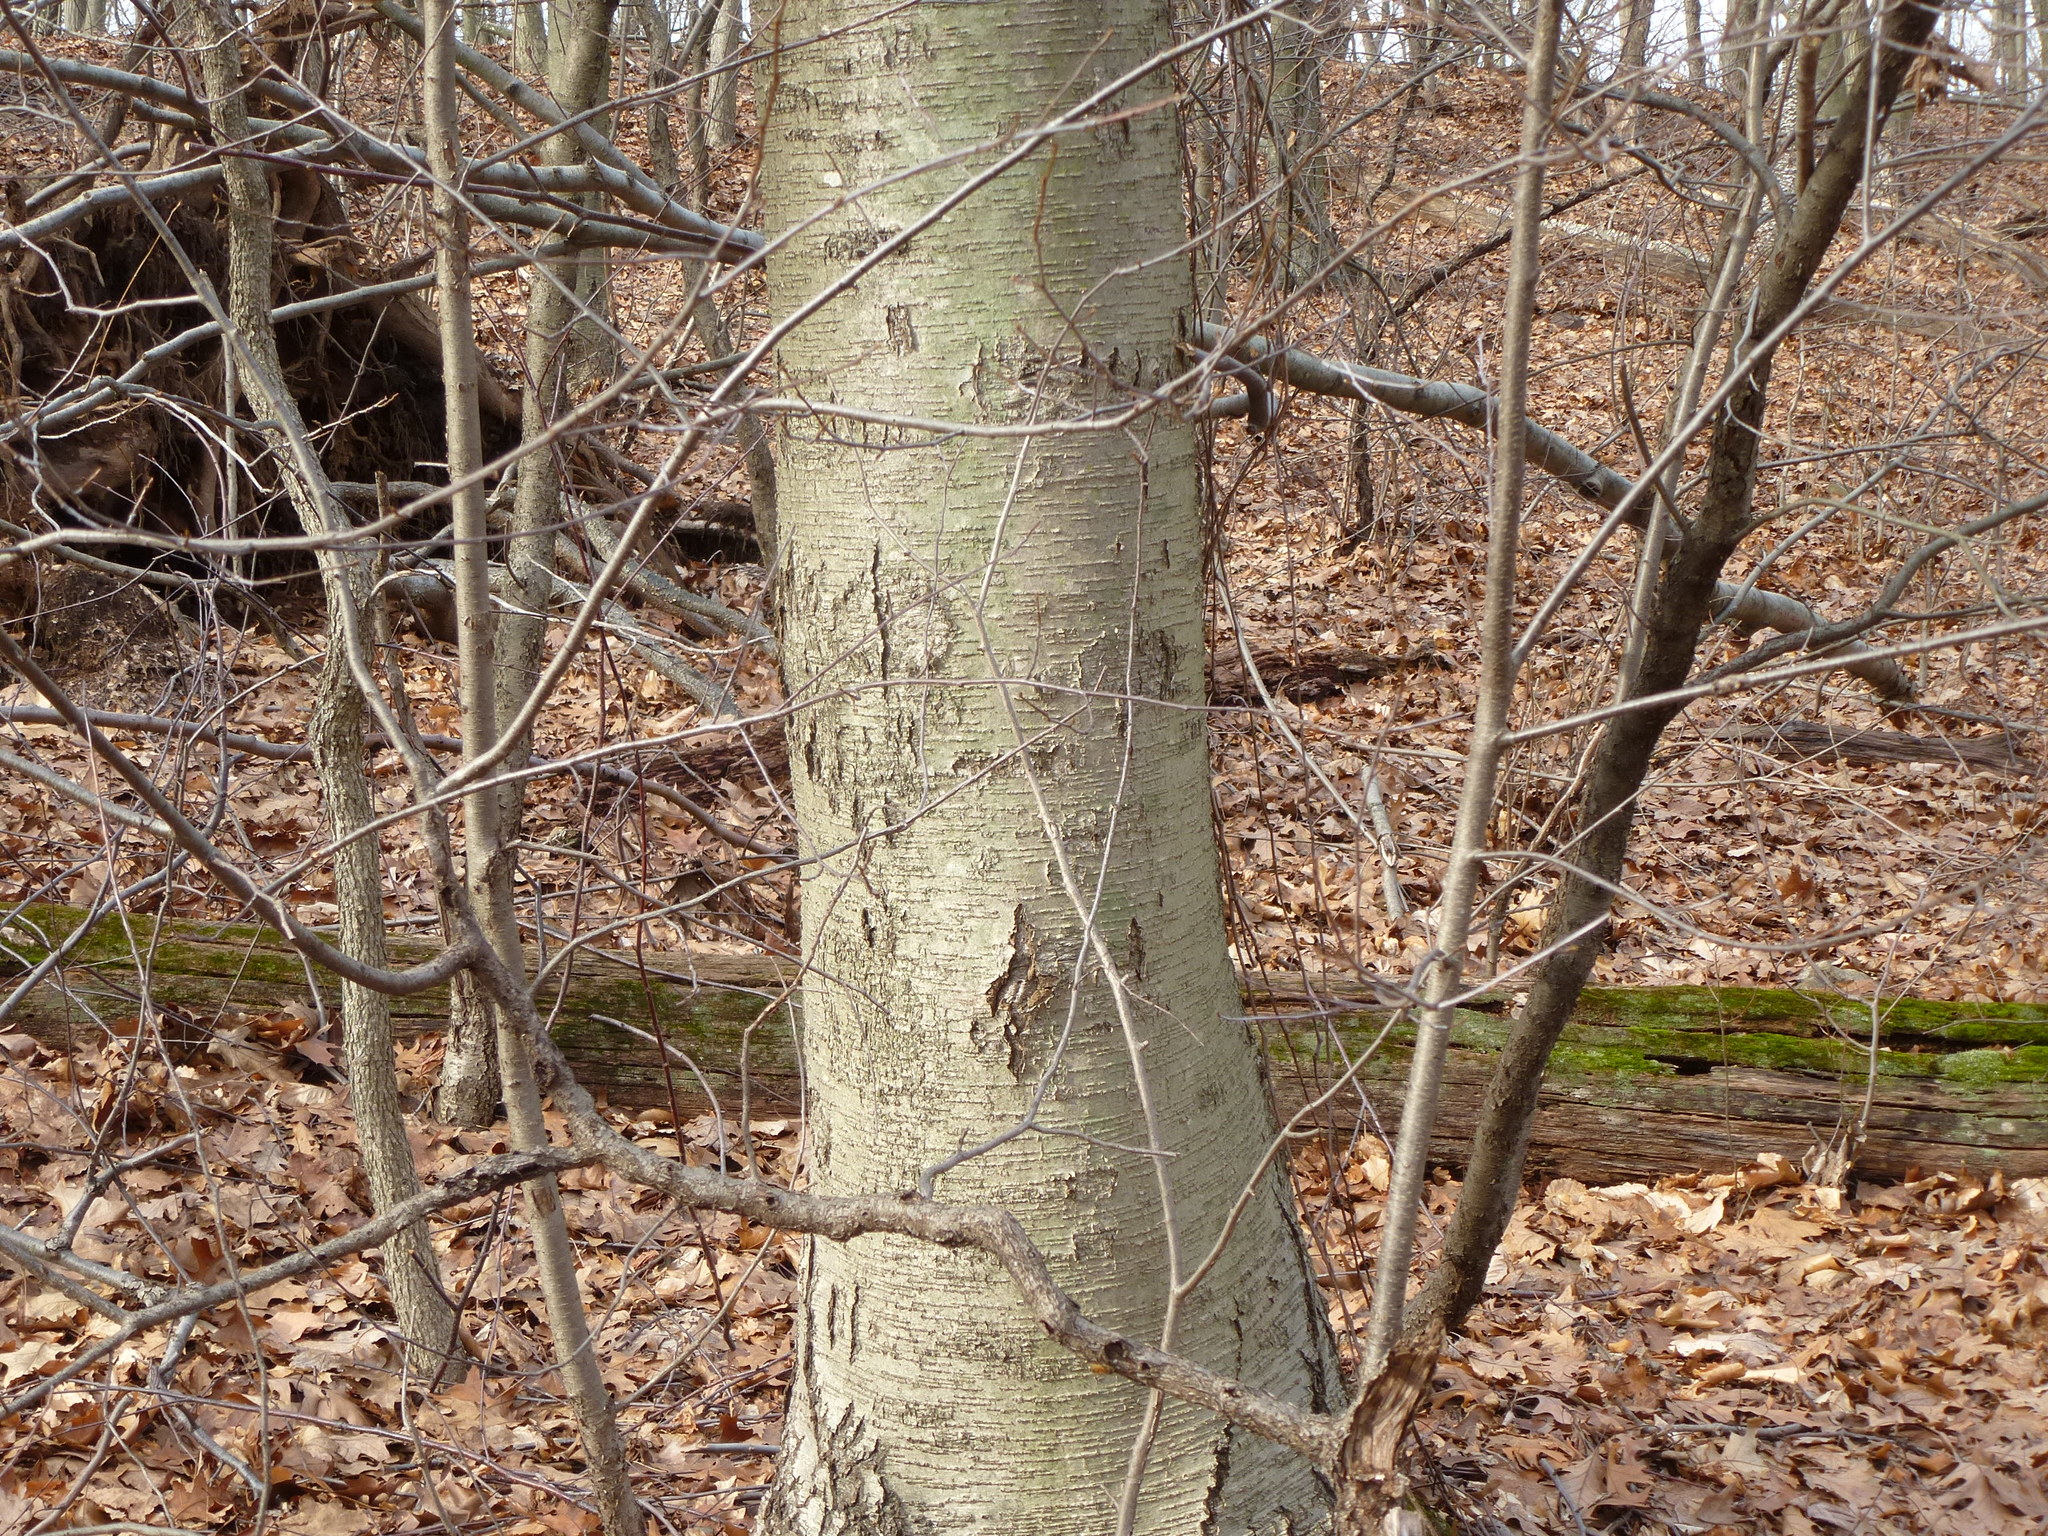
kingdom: Plantae
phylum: Tracheophyta
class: Magnoliopsida
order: Fagales
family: Betulaceae
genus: Betula
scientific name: Betula lenta
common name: Black birch
